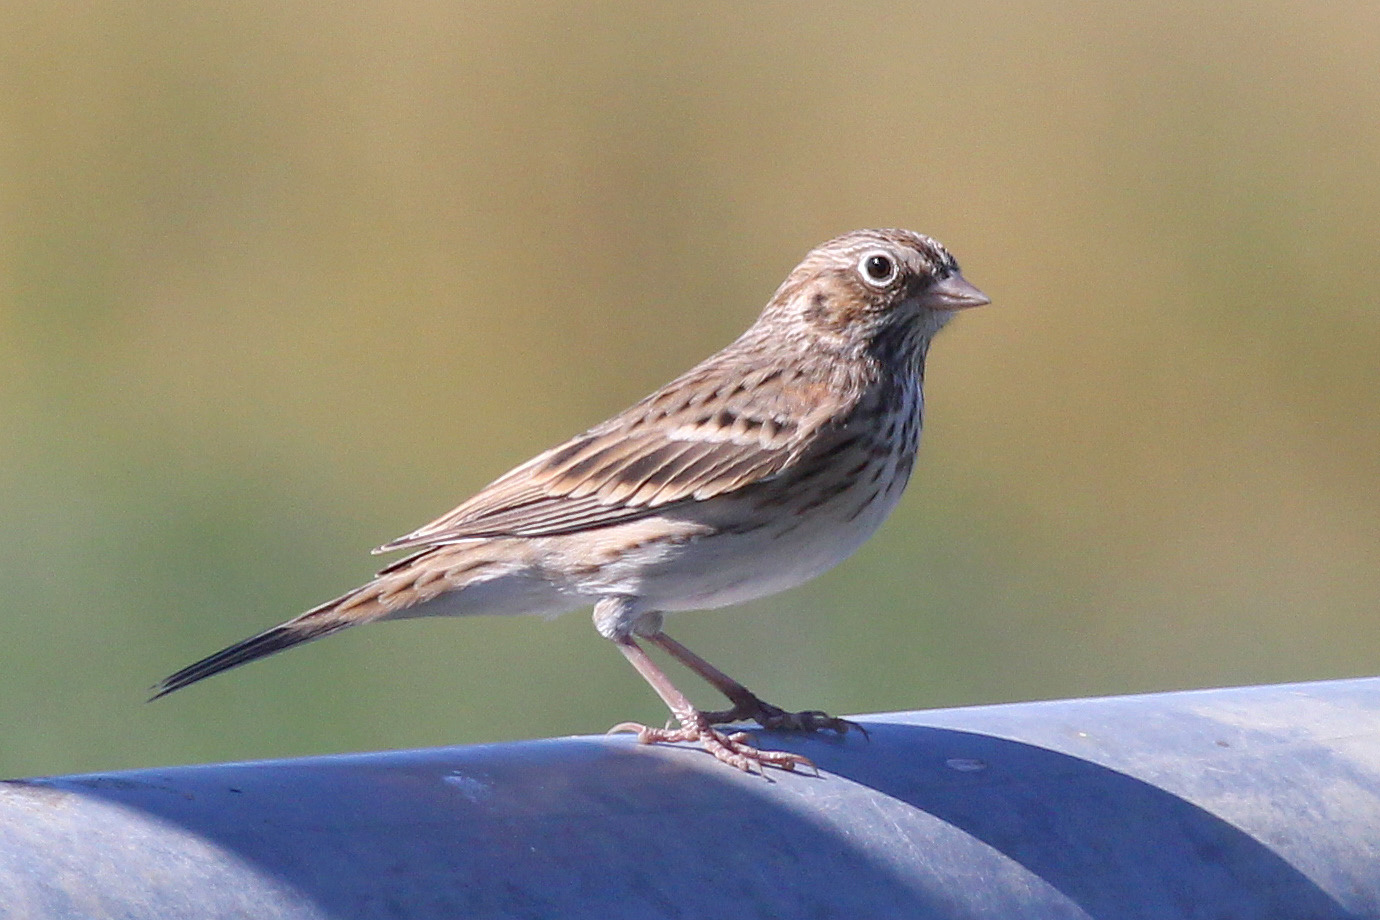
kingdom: Animalia
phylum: Chordata
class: Aves
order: Passeriformes
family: Passerellidae
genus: Pooecetes
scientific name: Pooecetes gramineus
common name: Vesper sparrow
